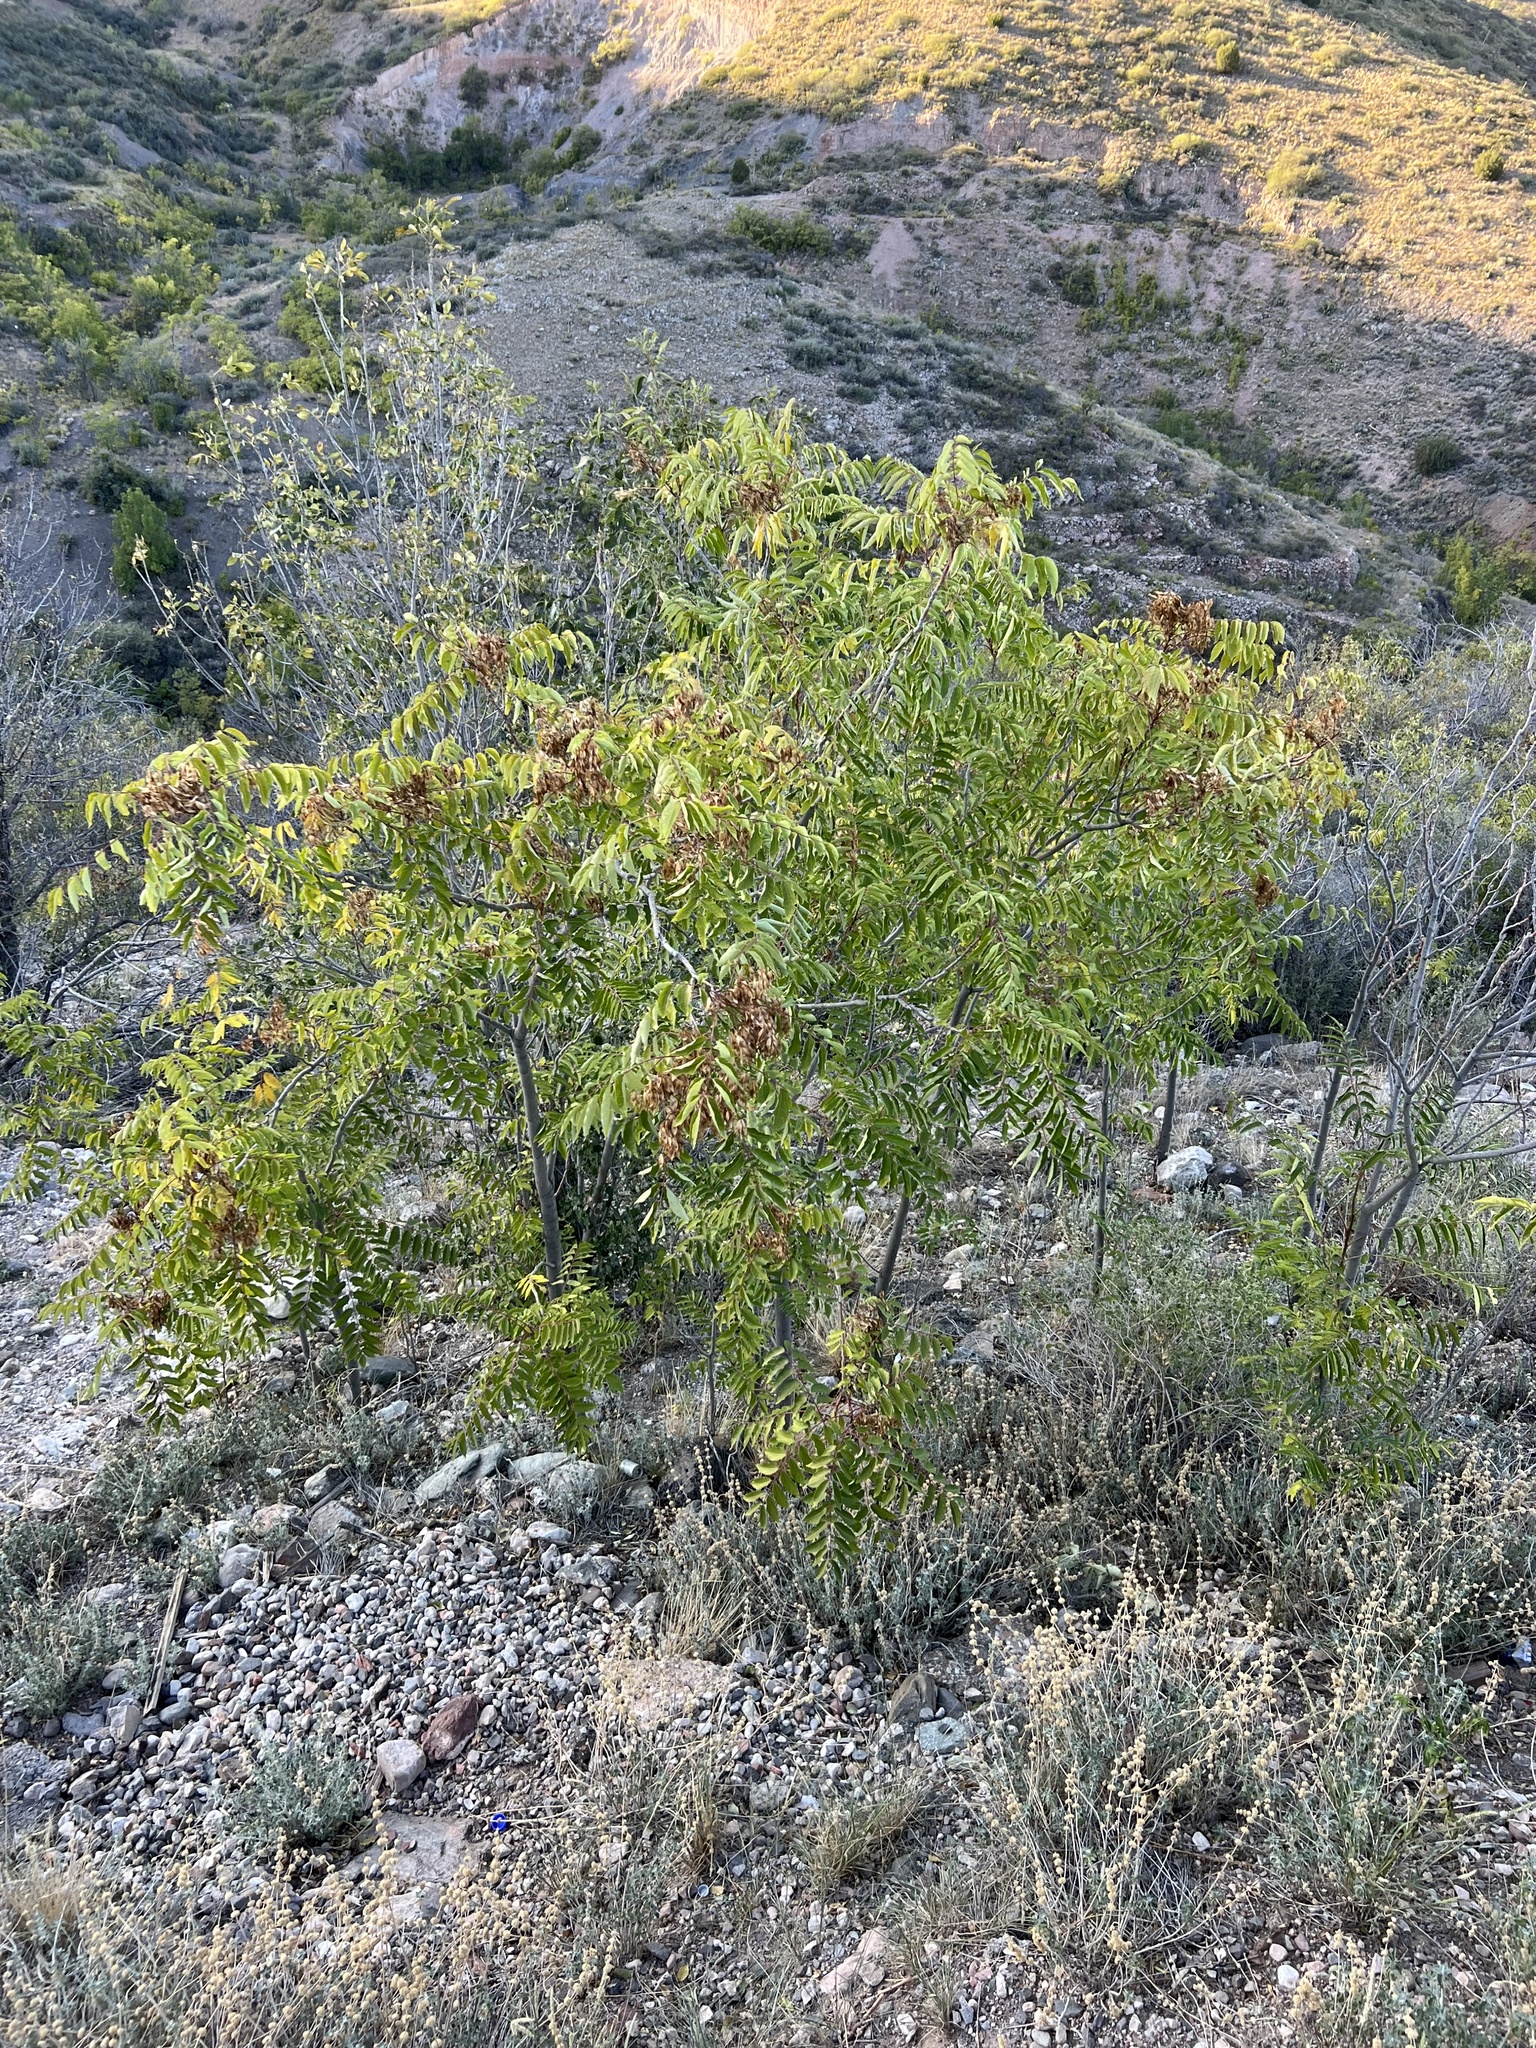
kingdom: Plantae
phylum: Tracheophyta
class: Magnoliopsida
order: Sapindales
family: Simaroubaceae
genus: Ailanthus
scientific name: Ailanthus altissima
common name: Tree-of-heaven
